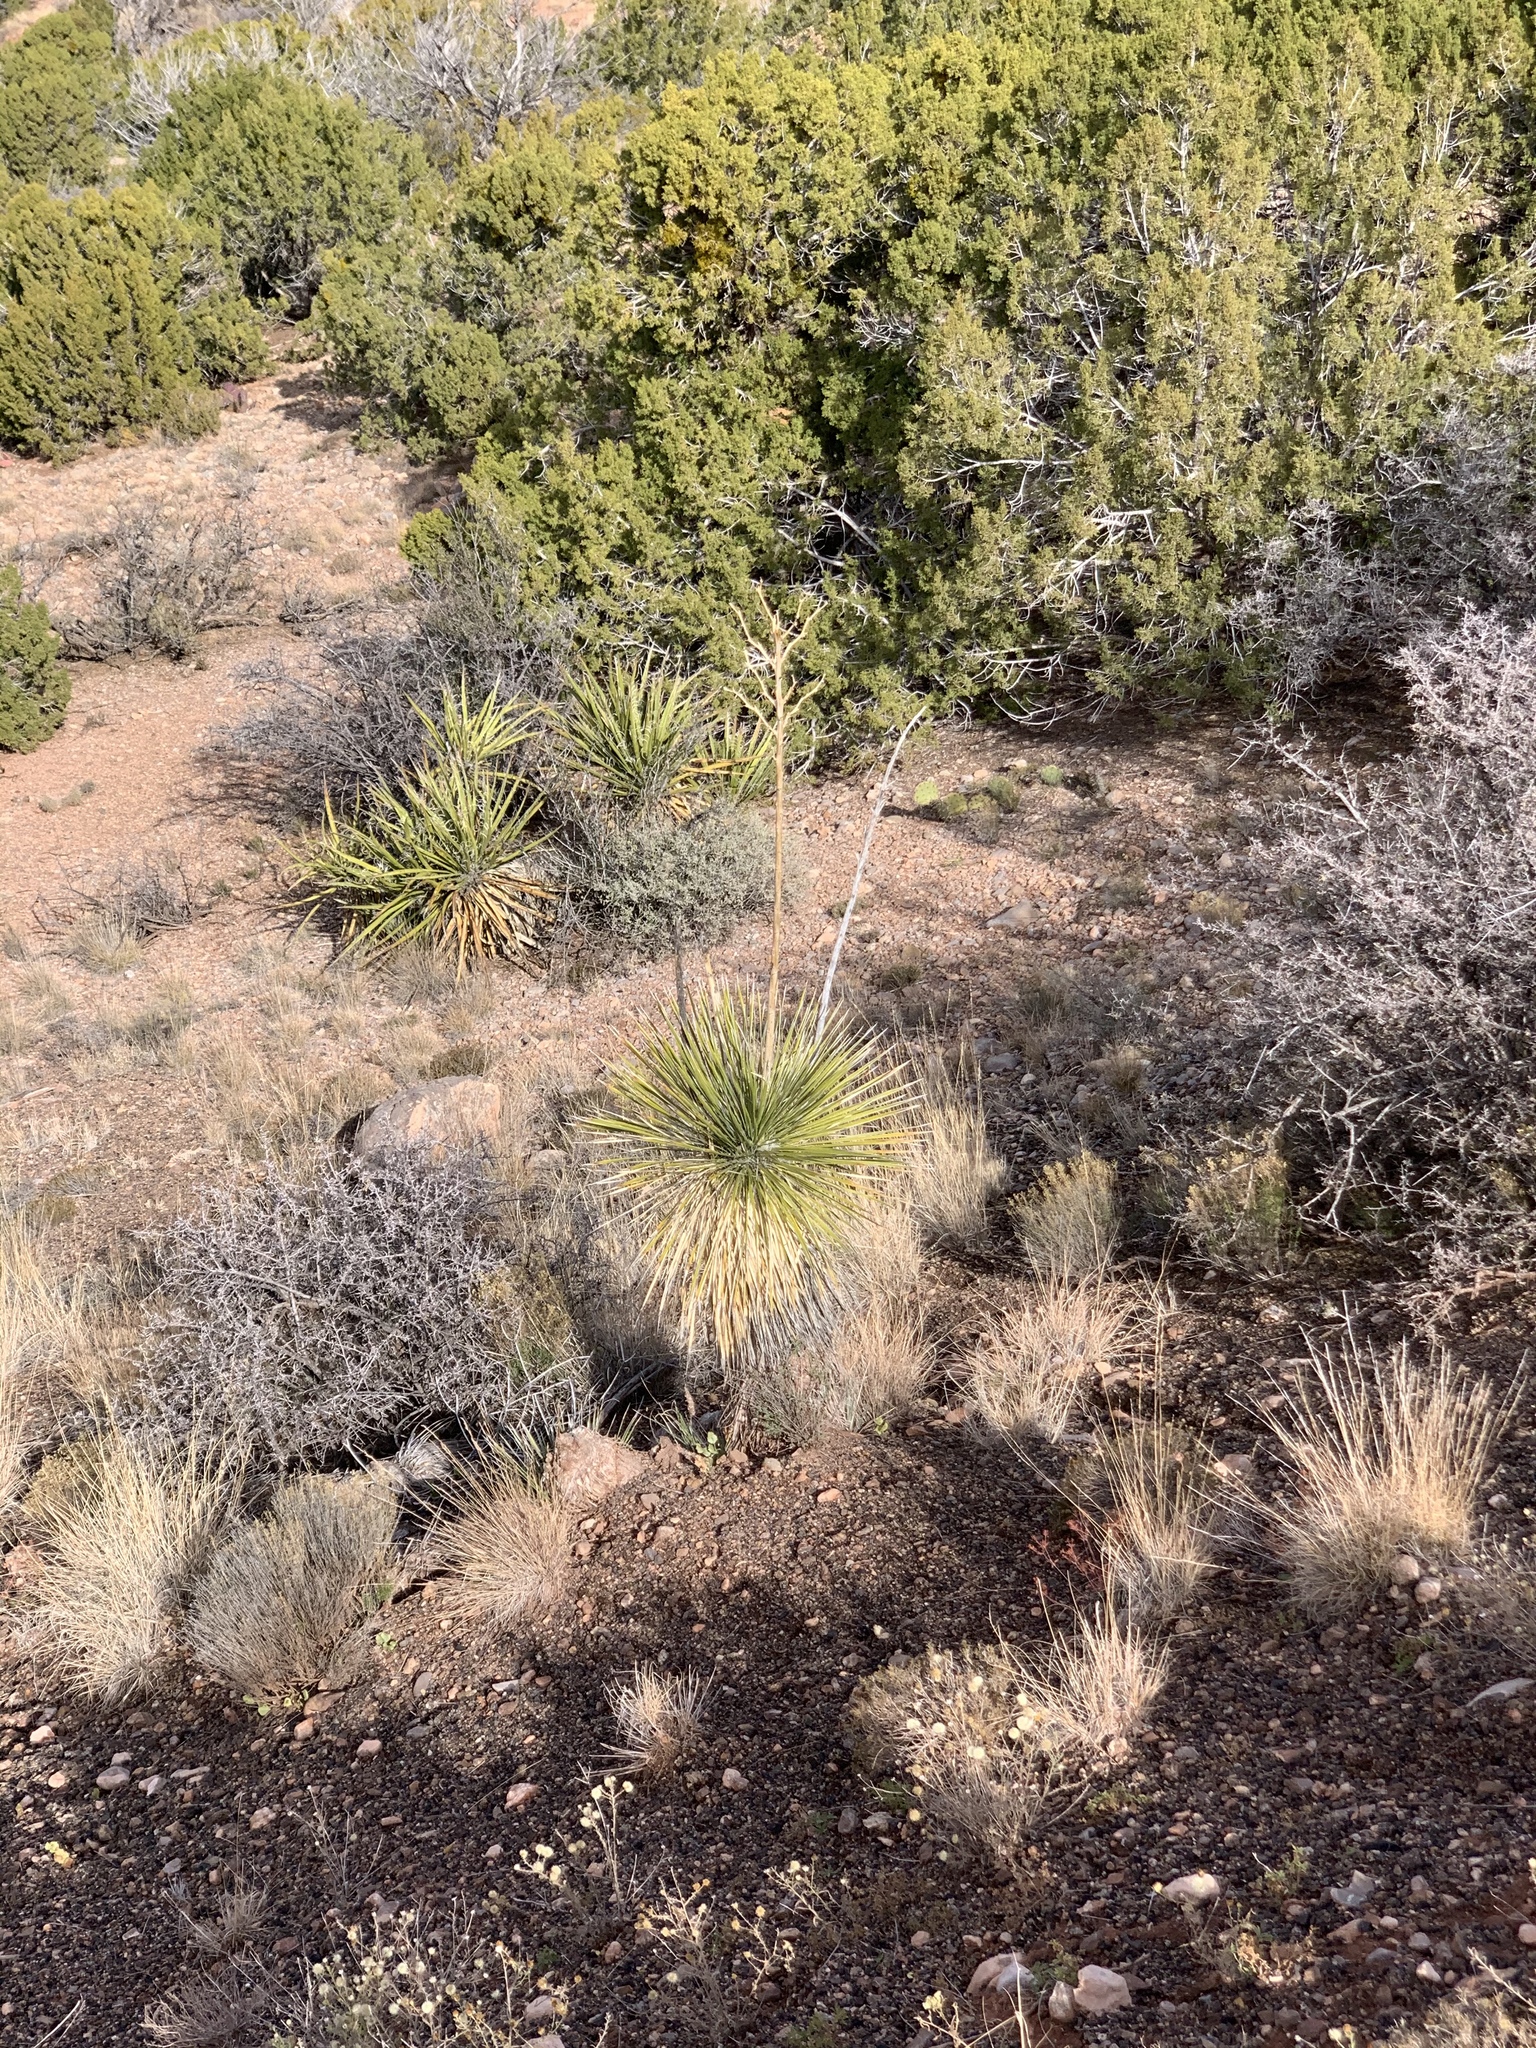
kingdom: Plantae
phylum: Tracheophyta
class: Liliopsida
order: Asparagales
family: Asparagaceae
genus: Yucca
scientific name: Yucca elata
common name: Palmella
